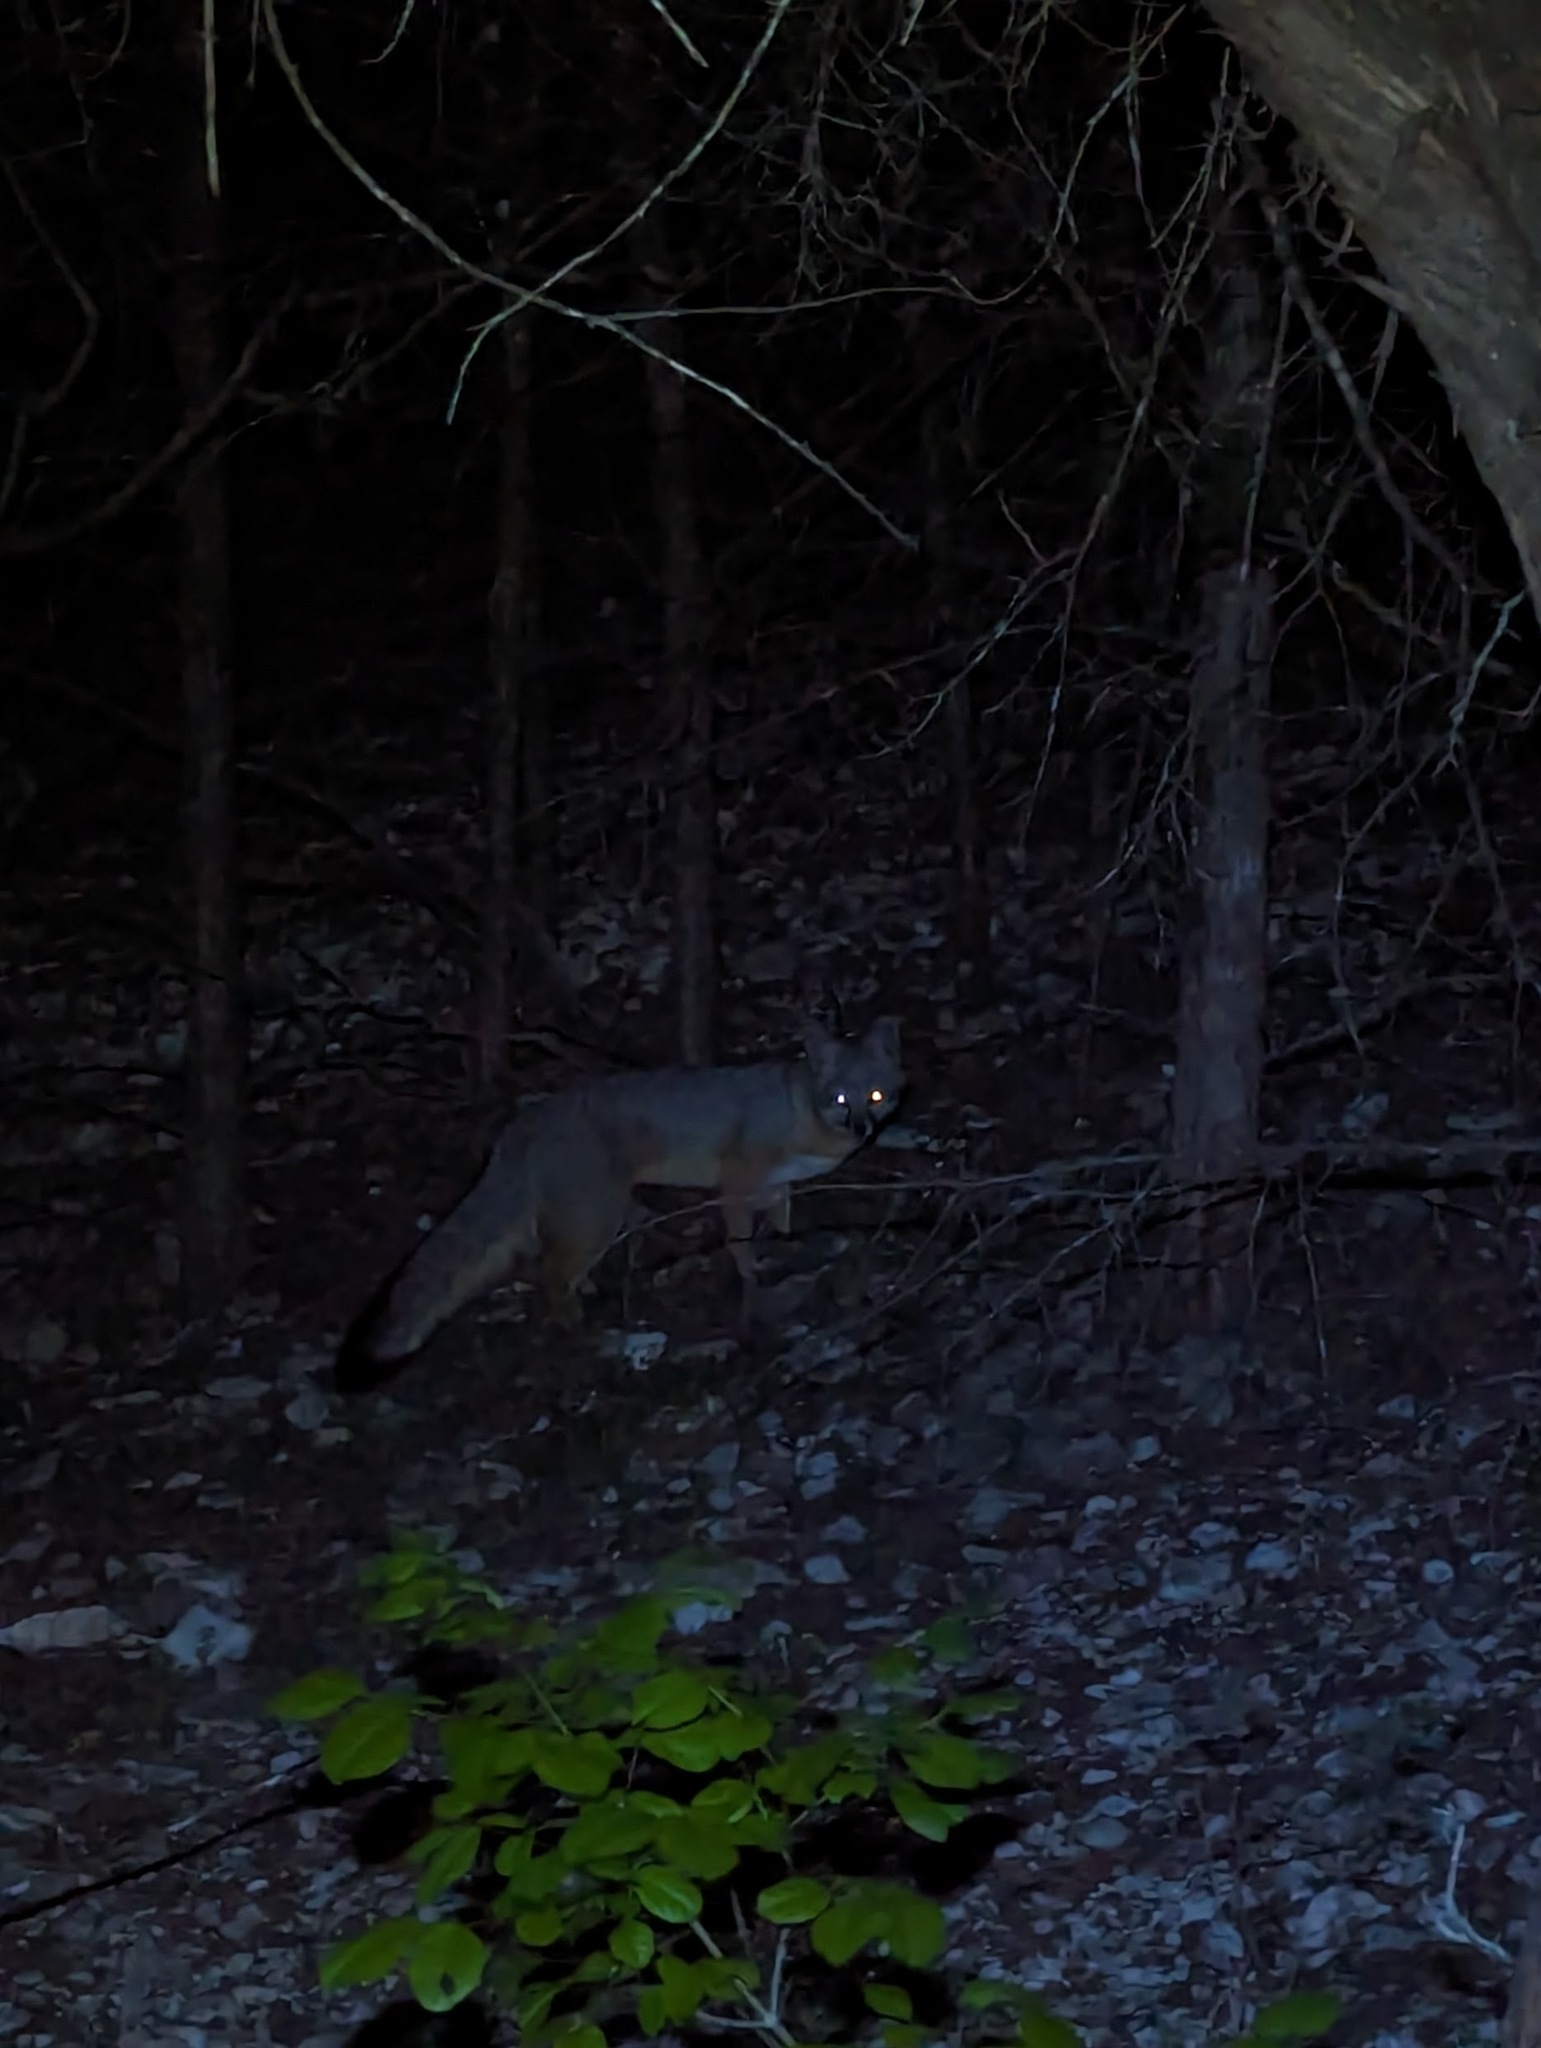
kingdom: Animalia
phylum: Chordata
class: Mammalia
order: Carnivora
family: Canidae
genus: Urocyon
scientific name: Urocyon cinereoargenteus
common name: Gray fox
